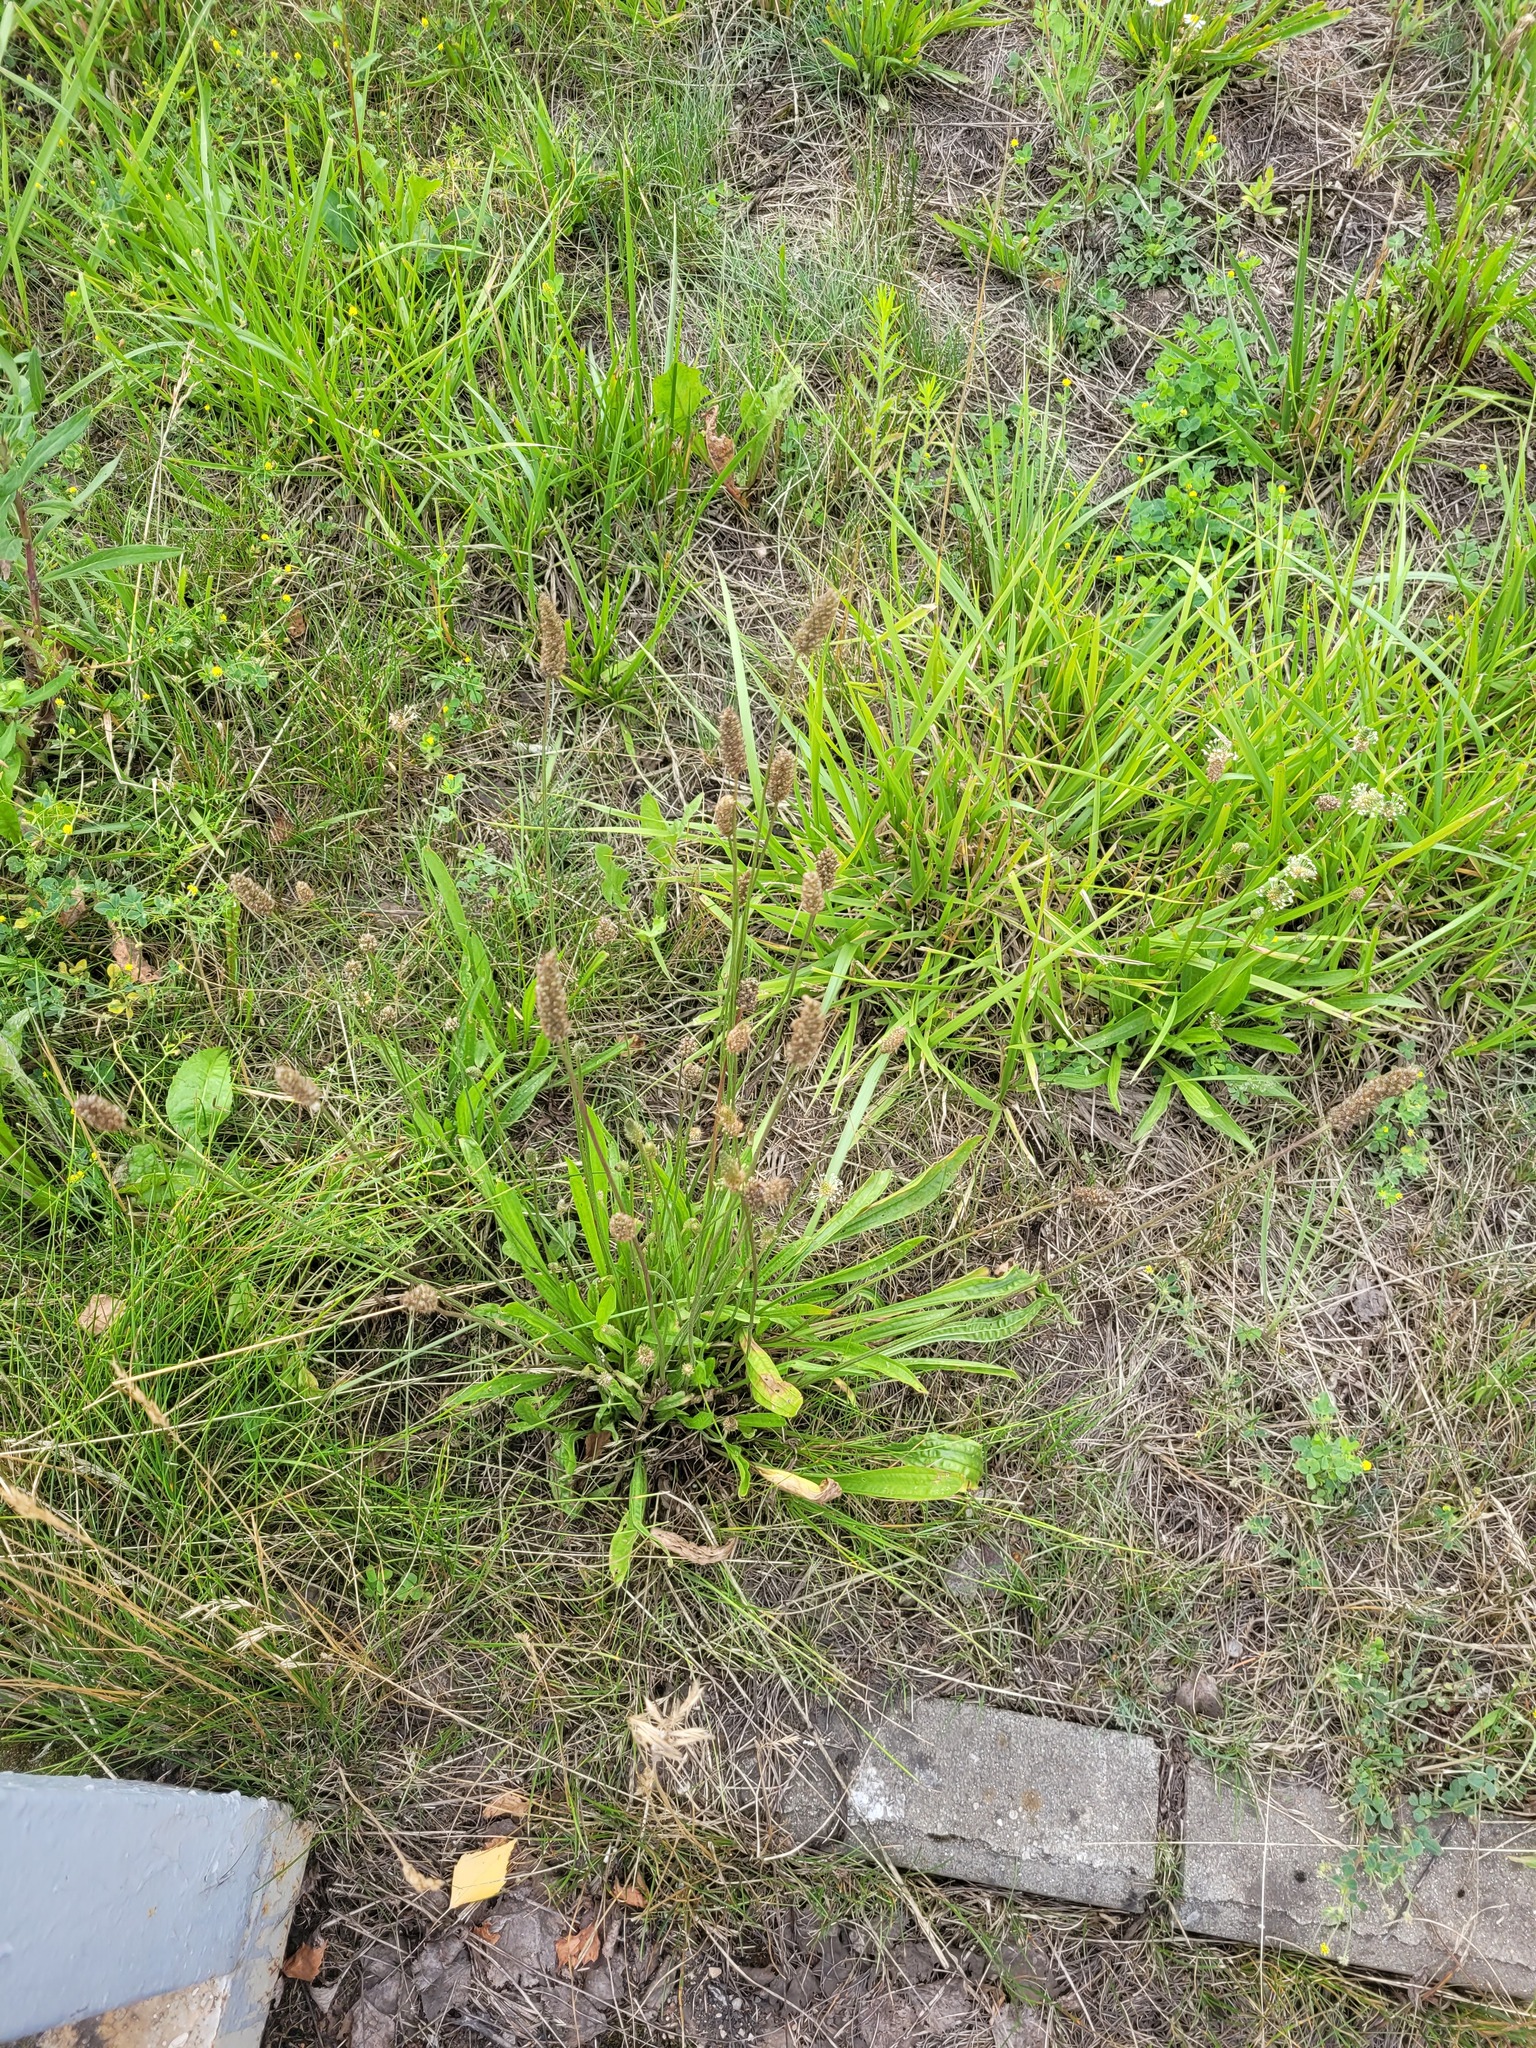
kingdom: Plantae
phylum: Tracheophyta
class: Magnoliopsida
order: Lamiales
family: Plantaginaceae
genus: Plantago
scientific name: Plantago lanceolata
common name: Ribwort plantain
